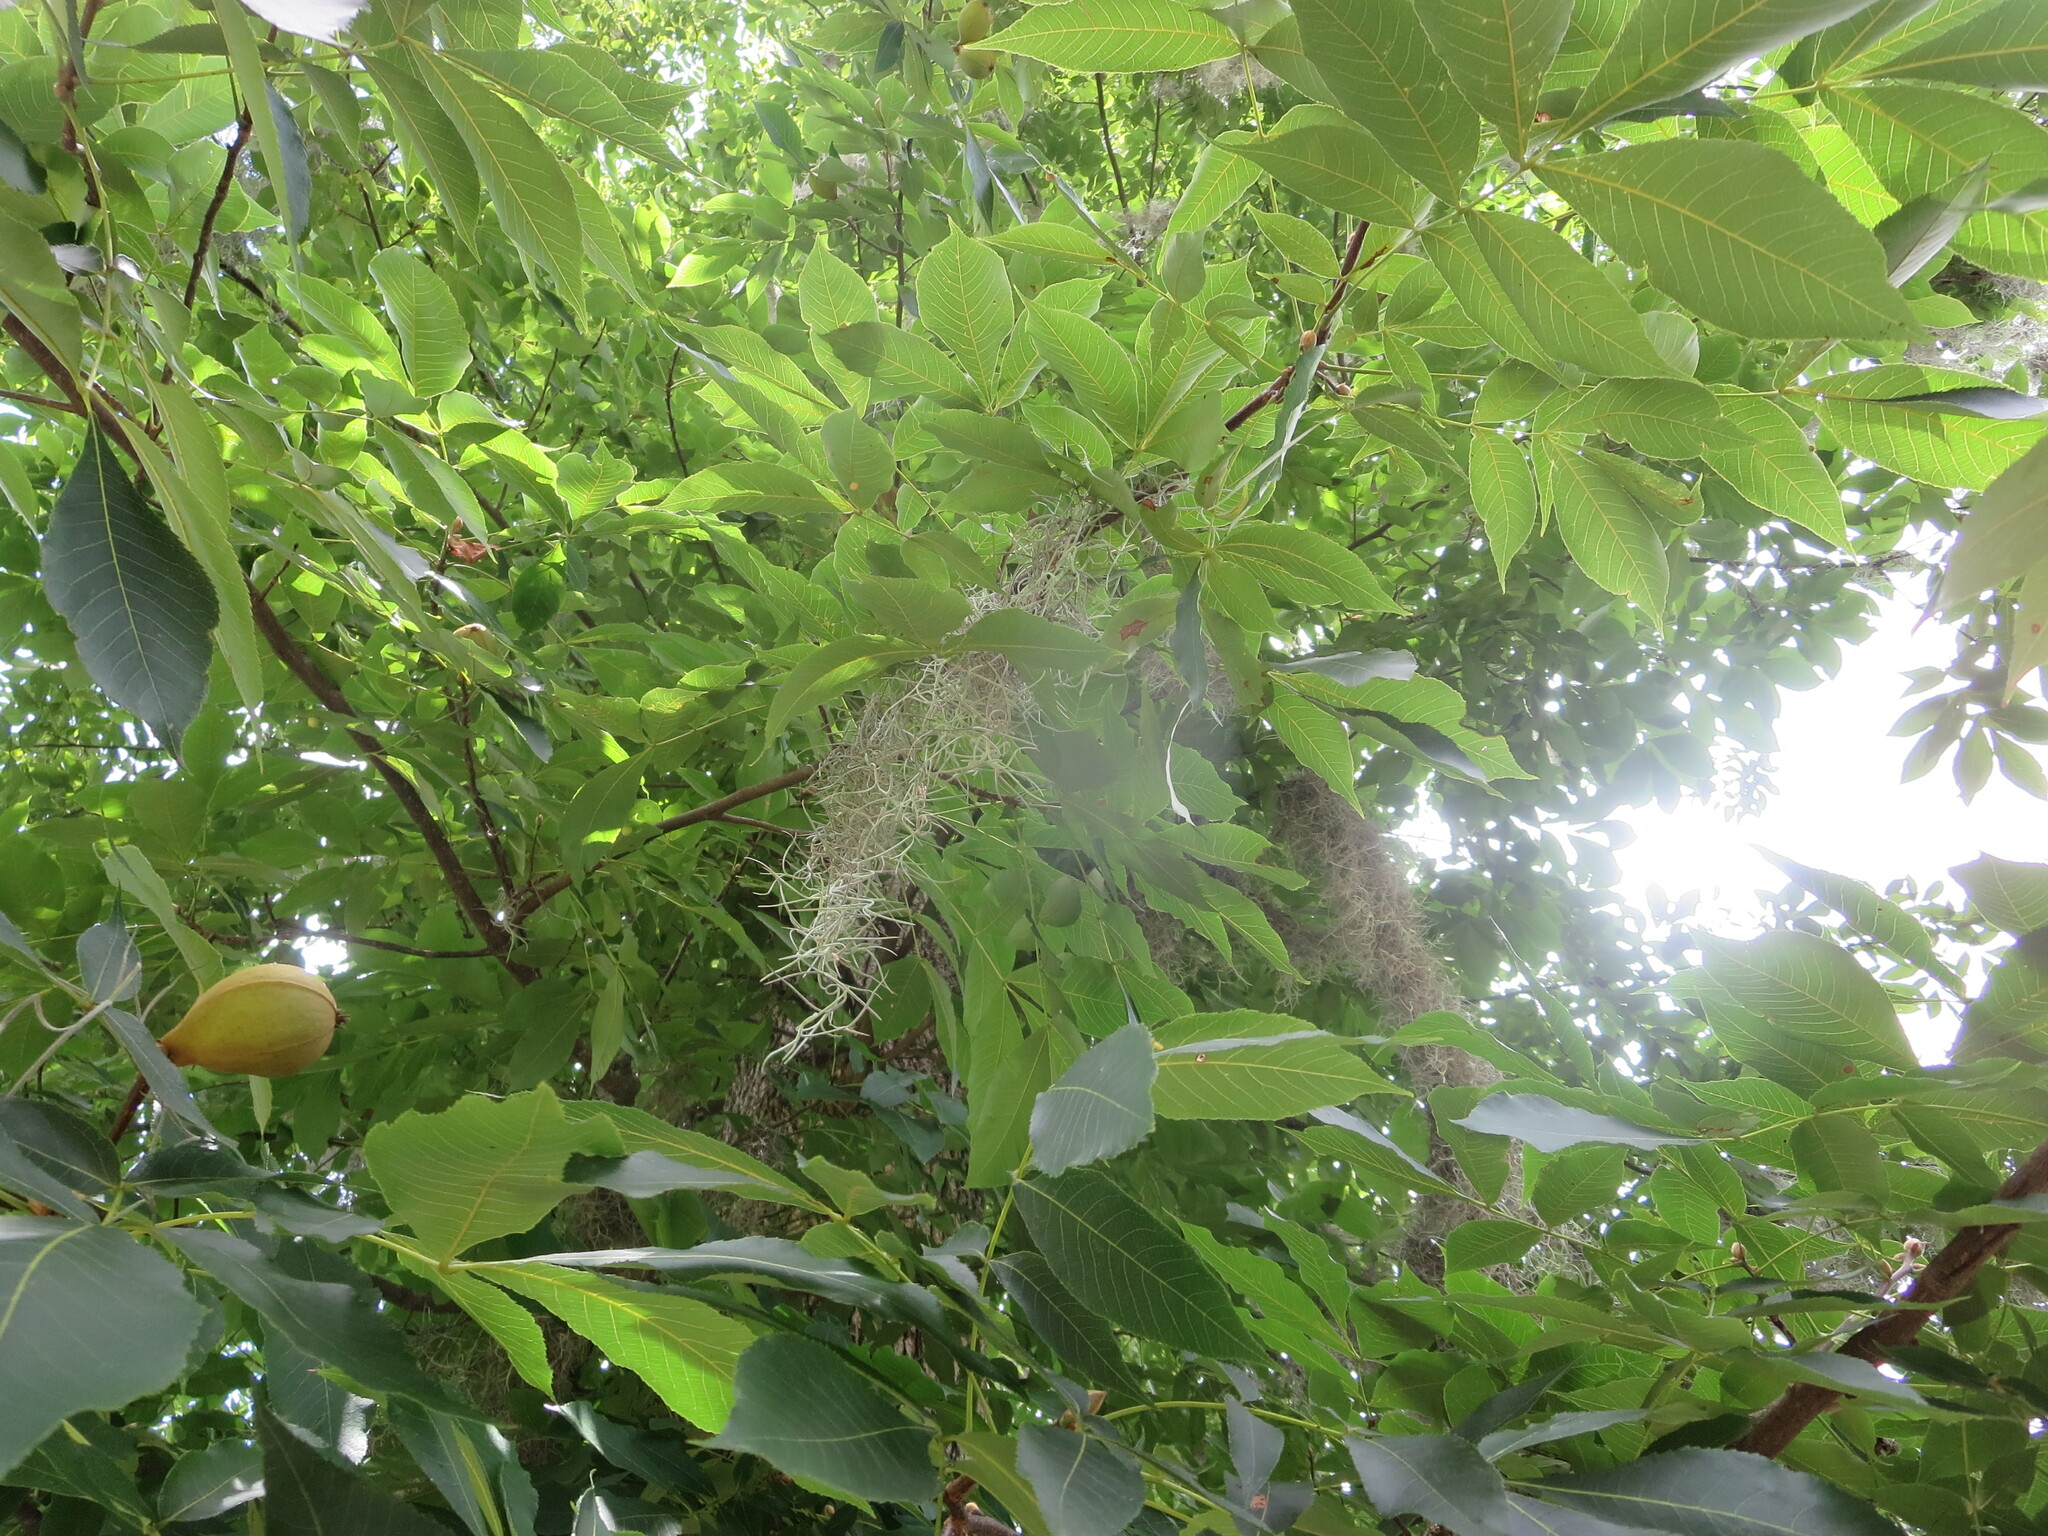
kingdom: Plantae
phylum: Tracheophyta
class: Liliopsida
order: Poales
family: Bromeliaceae
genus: Tillandsia
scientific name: Tillandsia usneoides
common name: Spanish moss
